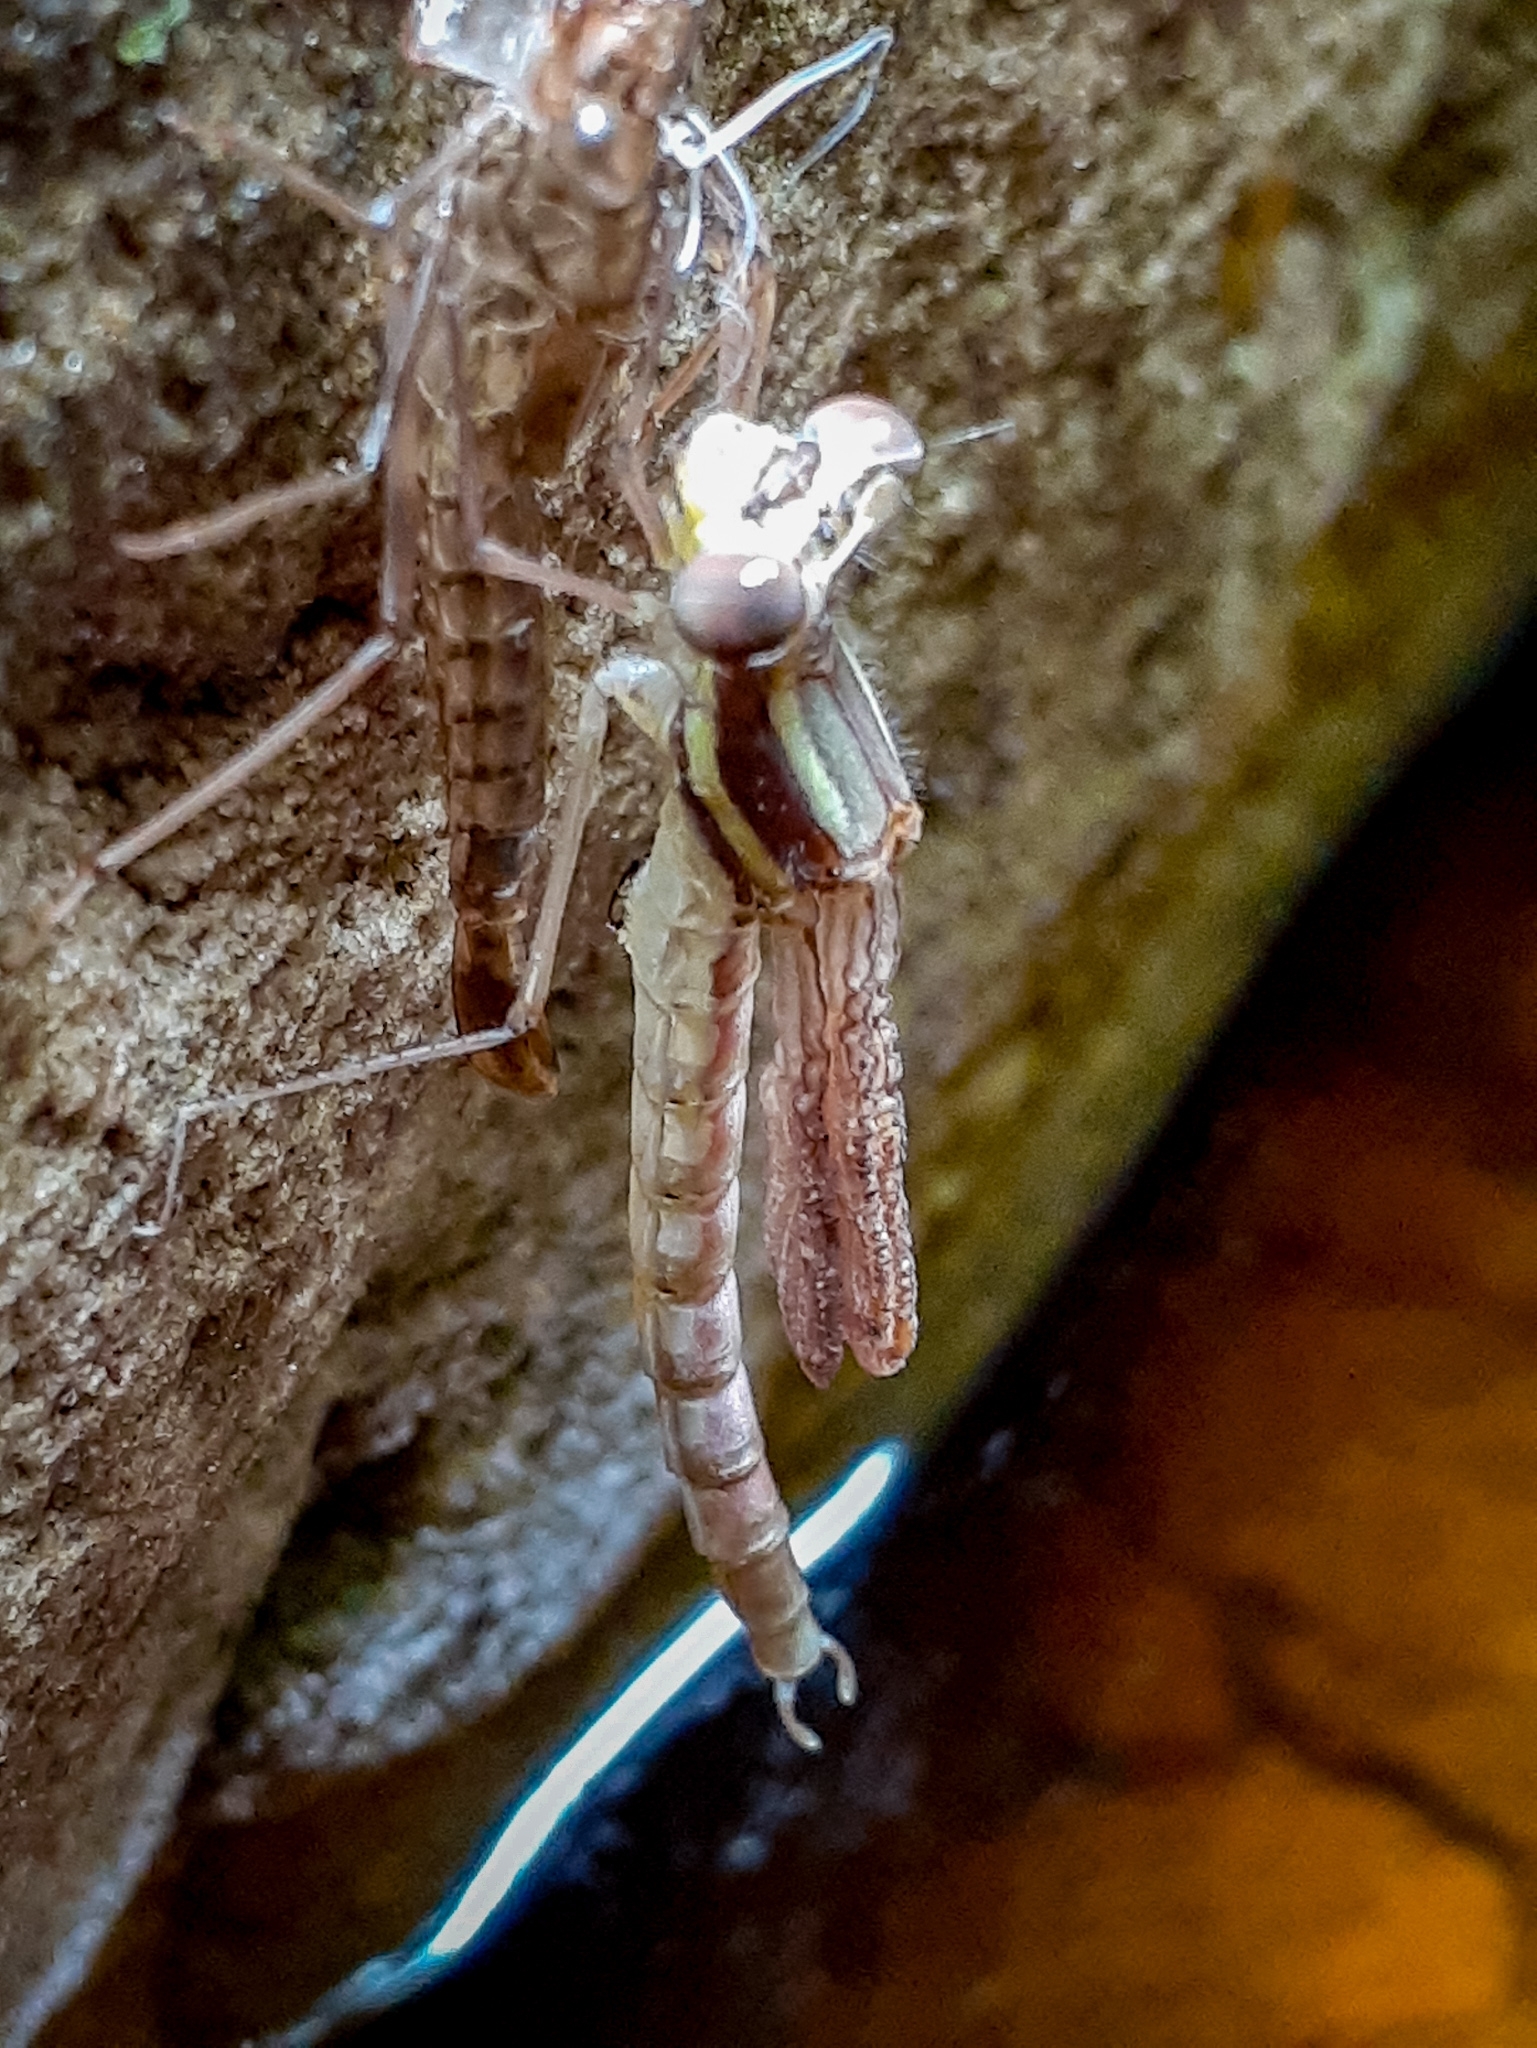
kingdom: Animalia
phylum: Arthropoda
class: Insecta
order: Odonata
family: Synlestidae
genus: Chlorolestes
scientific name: Chlorolestes conspicuus
